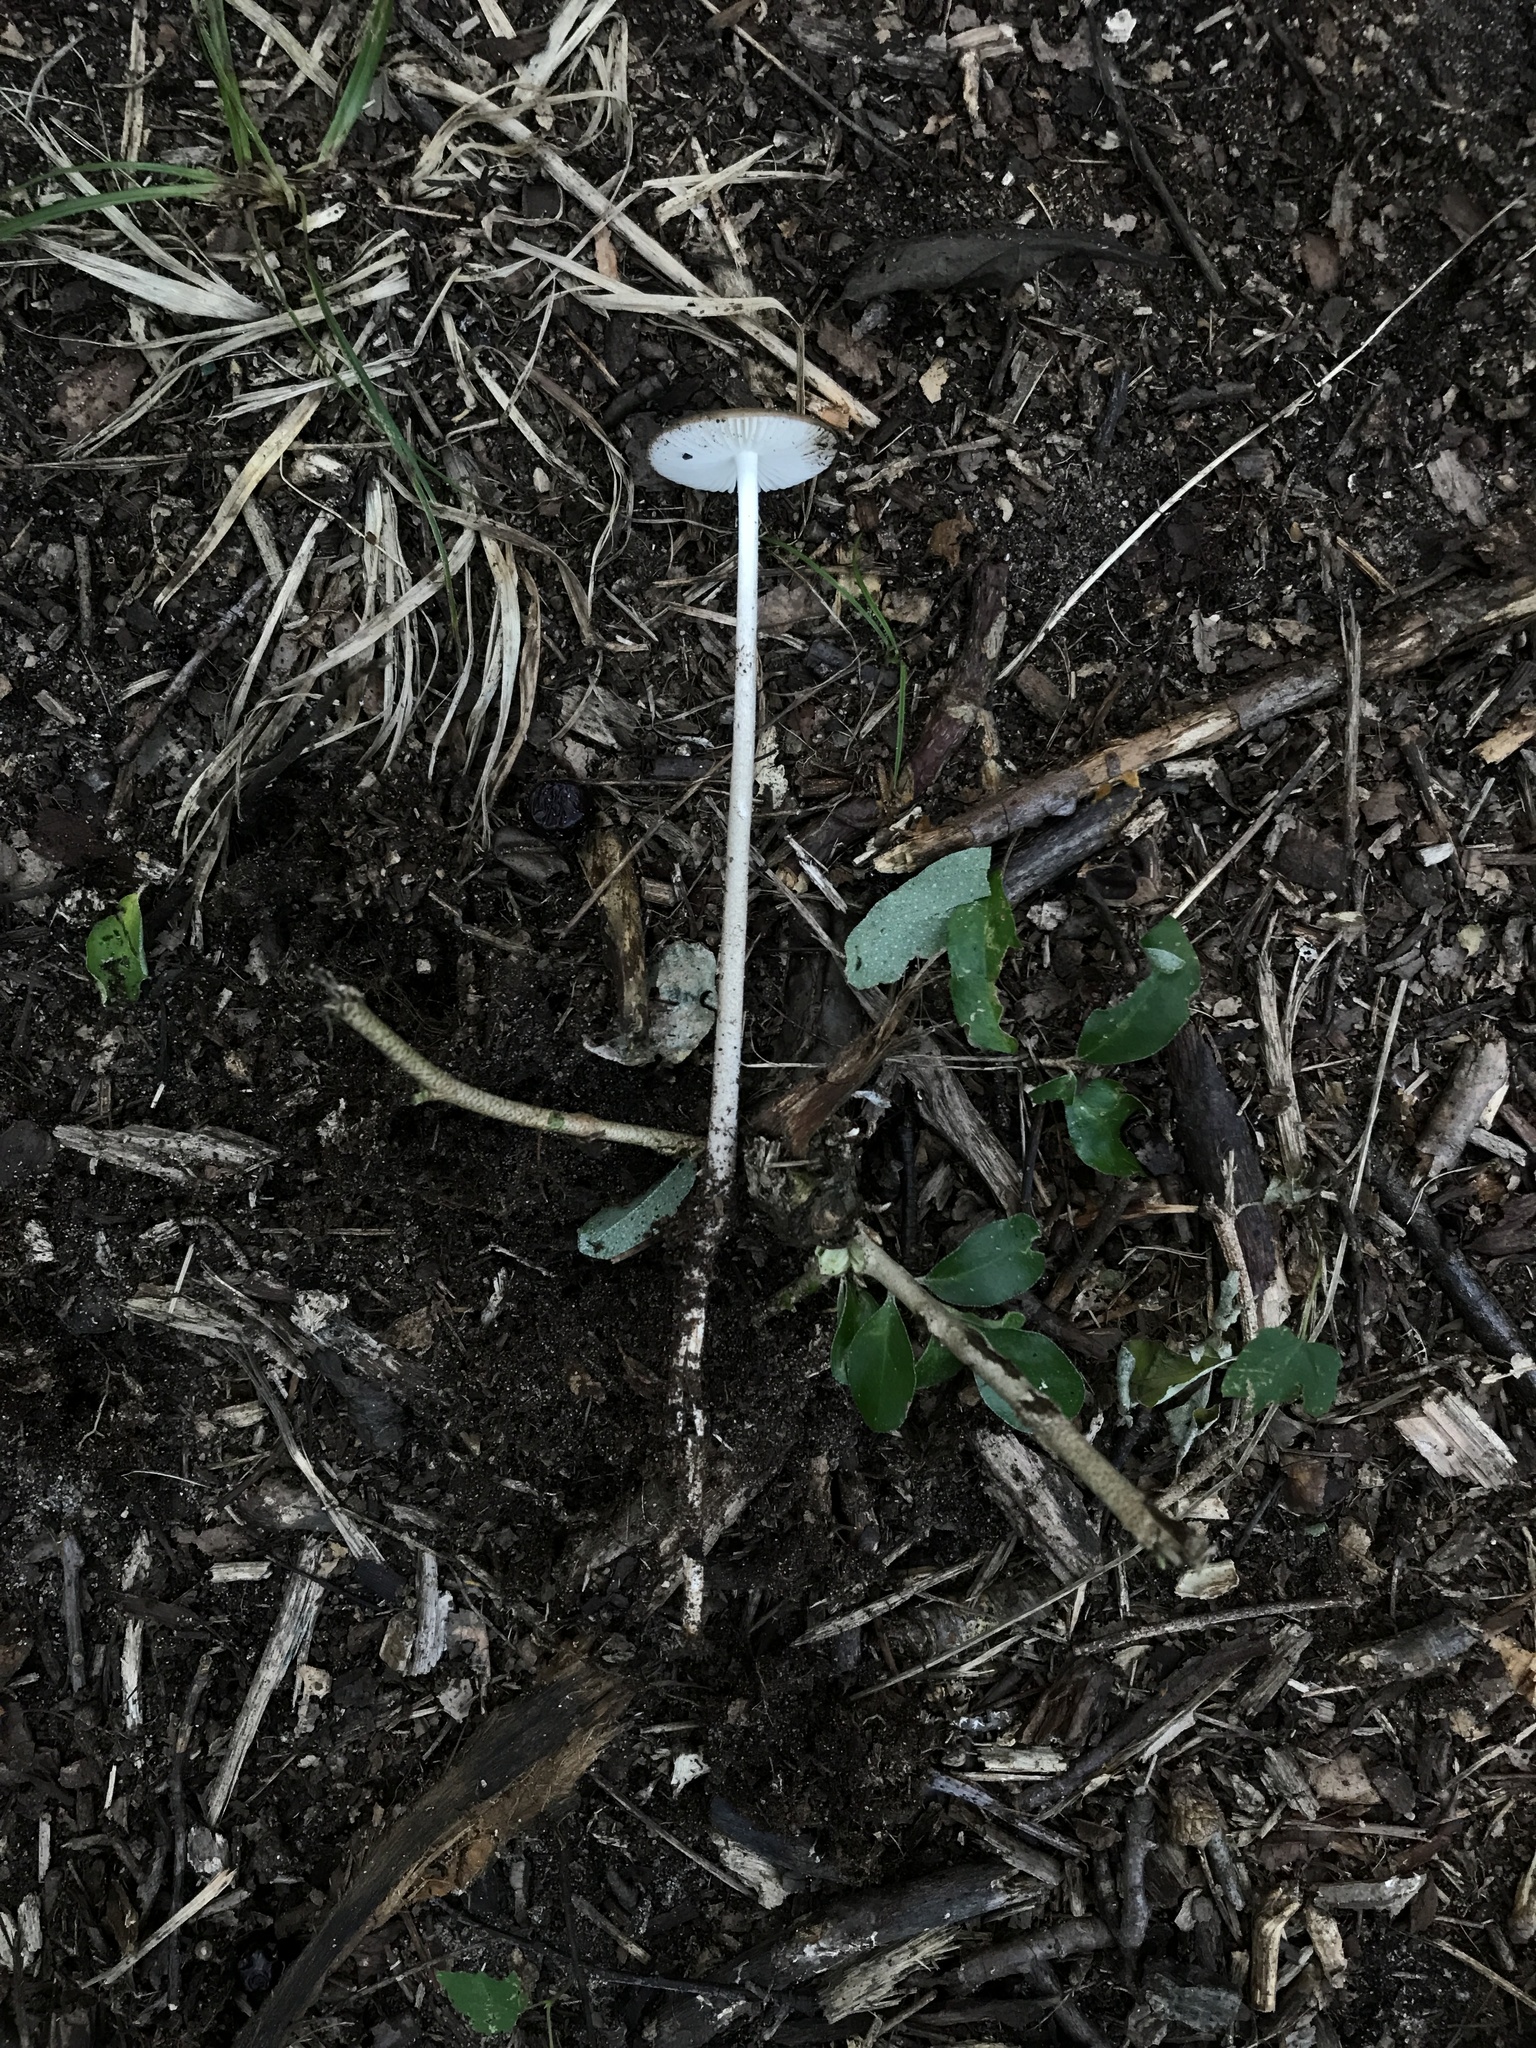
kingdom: Fungi
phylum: Basidiomycota
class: Agaricomycetes
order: Agaricales
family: Physalacriaceae
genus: Hymenopellis
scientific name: Hymenopellis furfuracea
